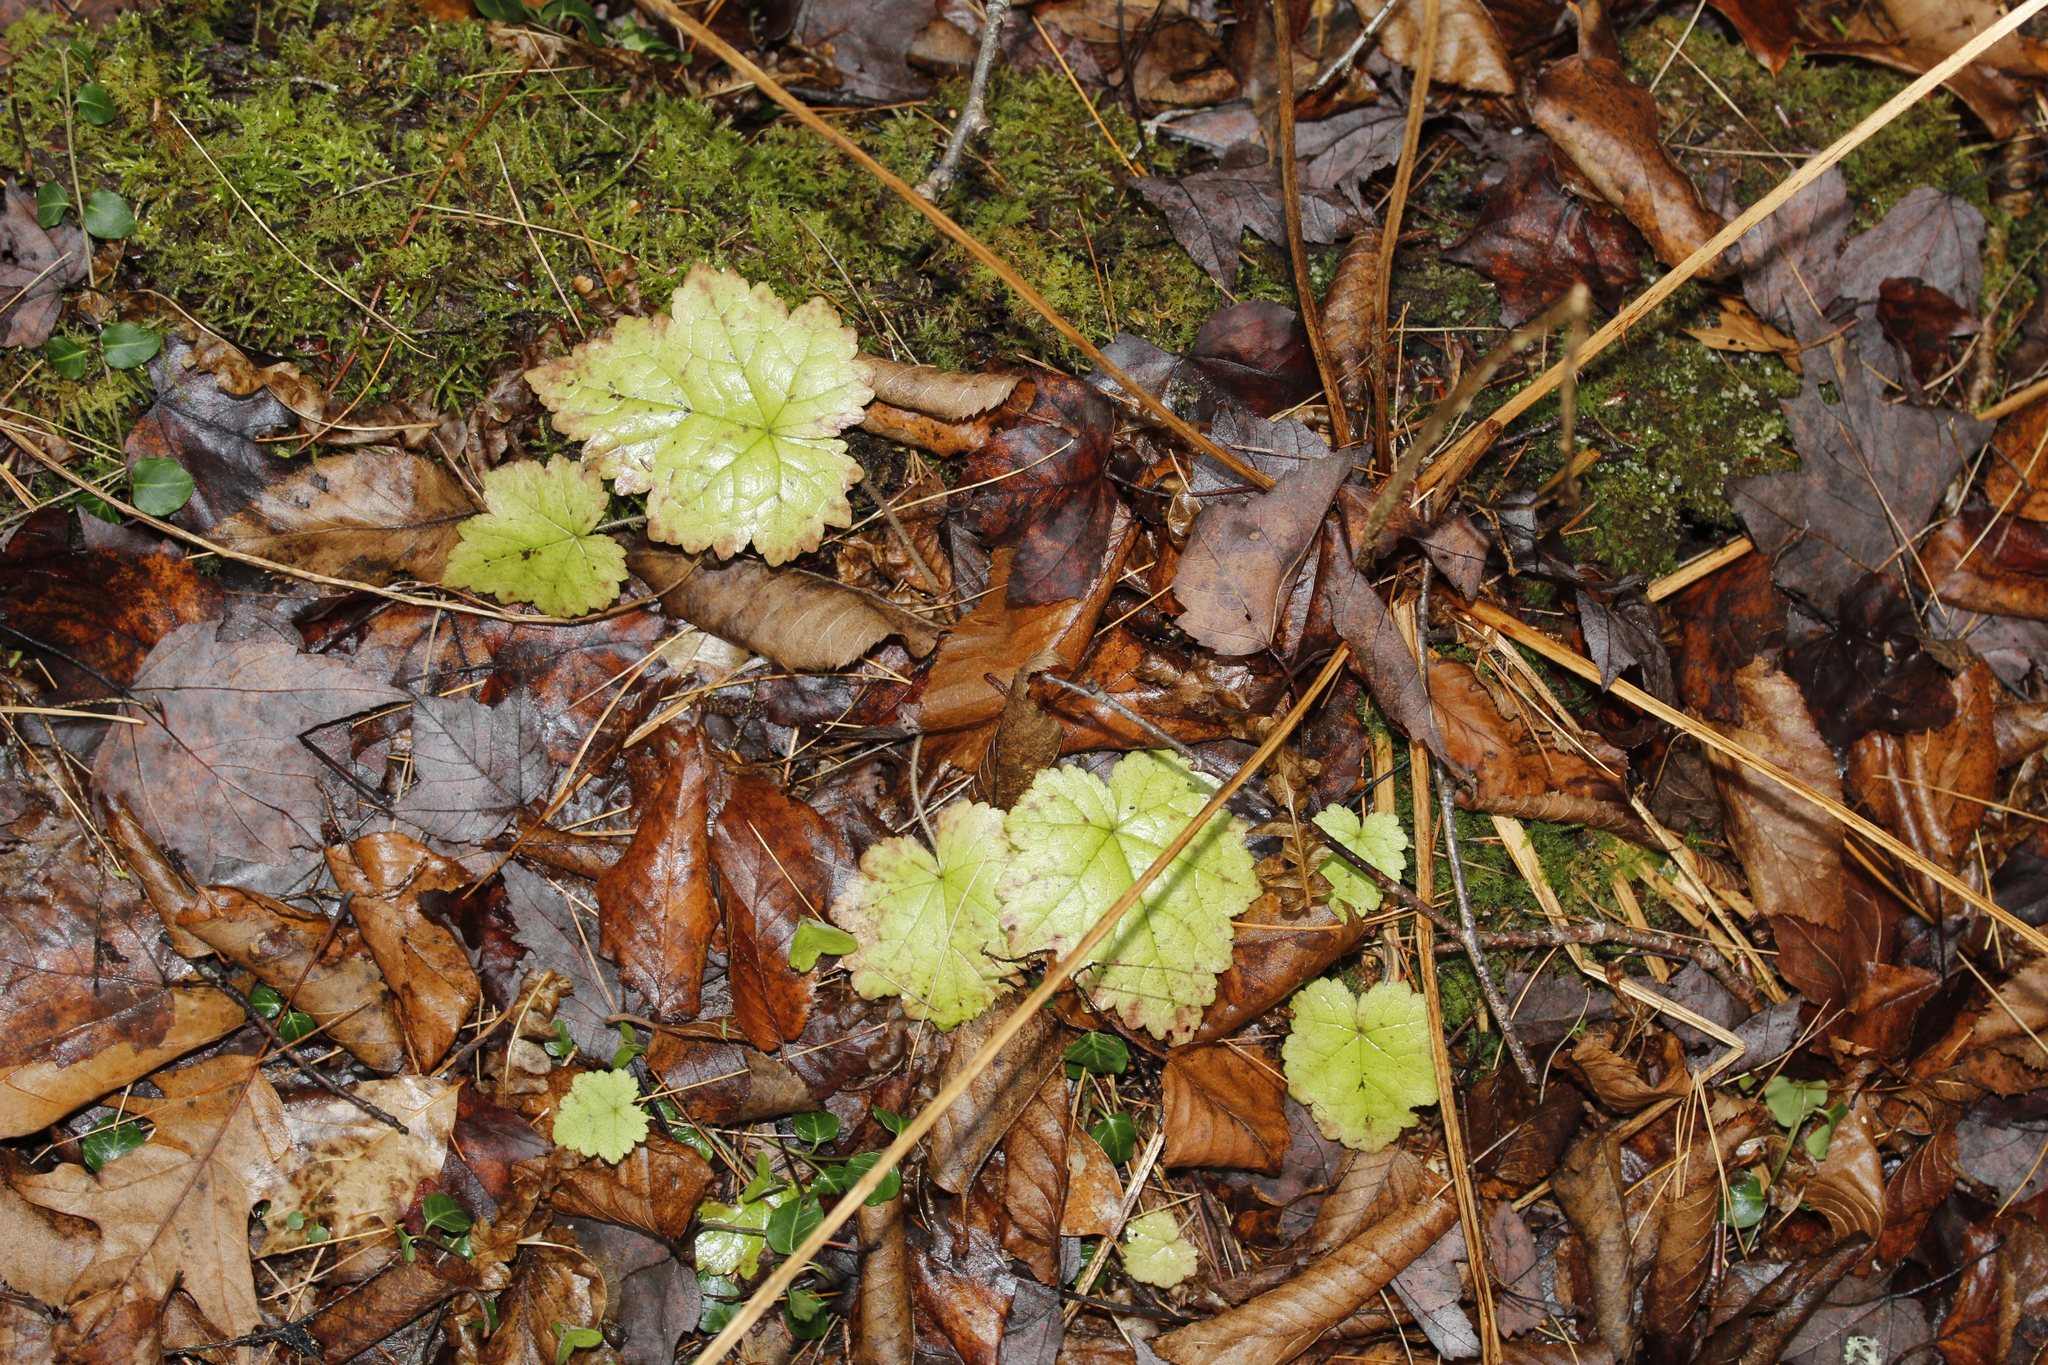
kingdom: Plantae
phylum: Tracheophyta
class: Magnoliopsida
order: Saxifragales
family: Saxifragaceae
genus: Tiarella
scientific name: Tiarella stolonifera
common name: Stoloniferous foamflower
